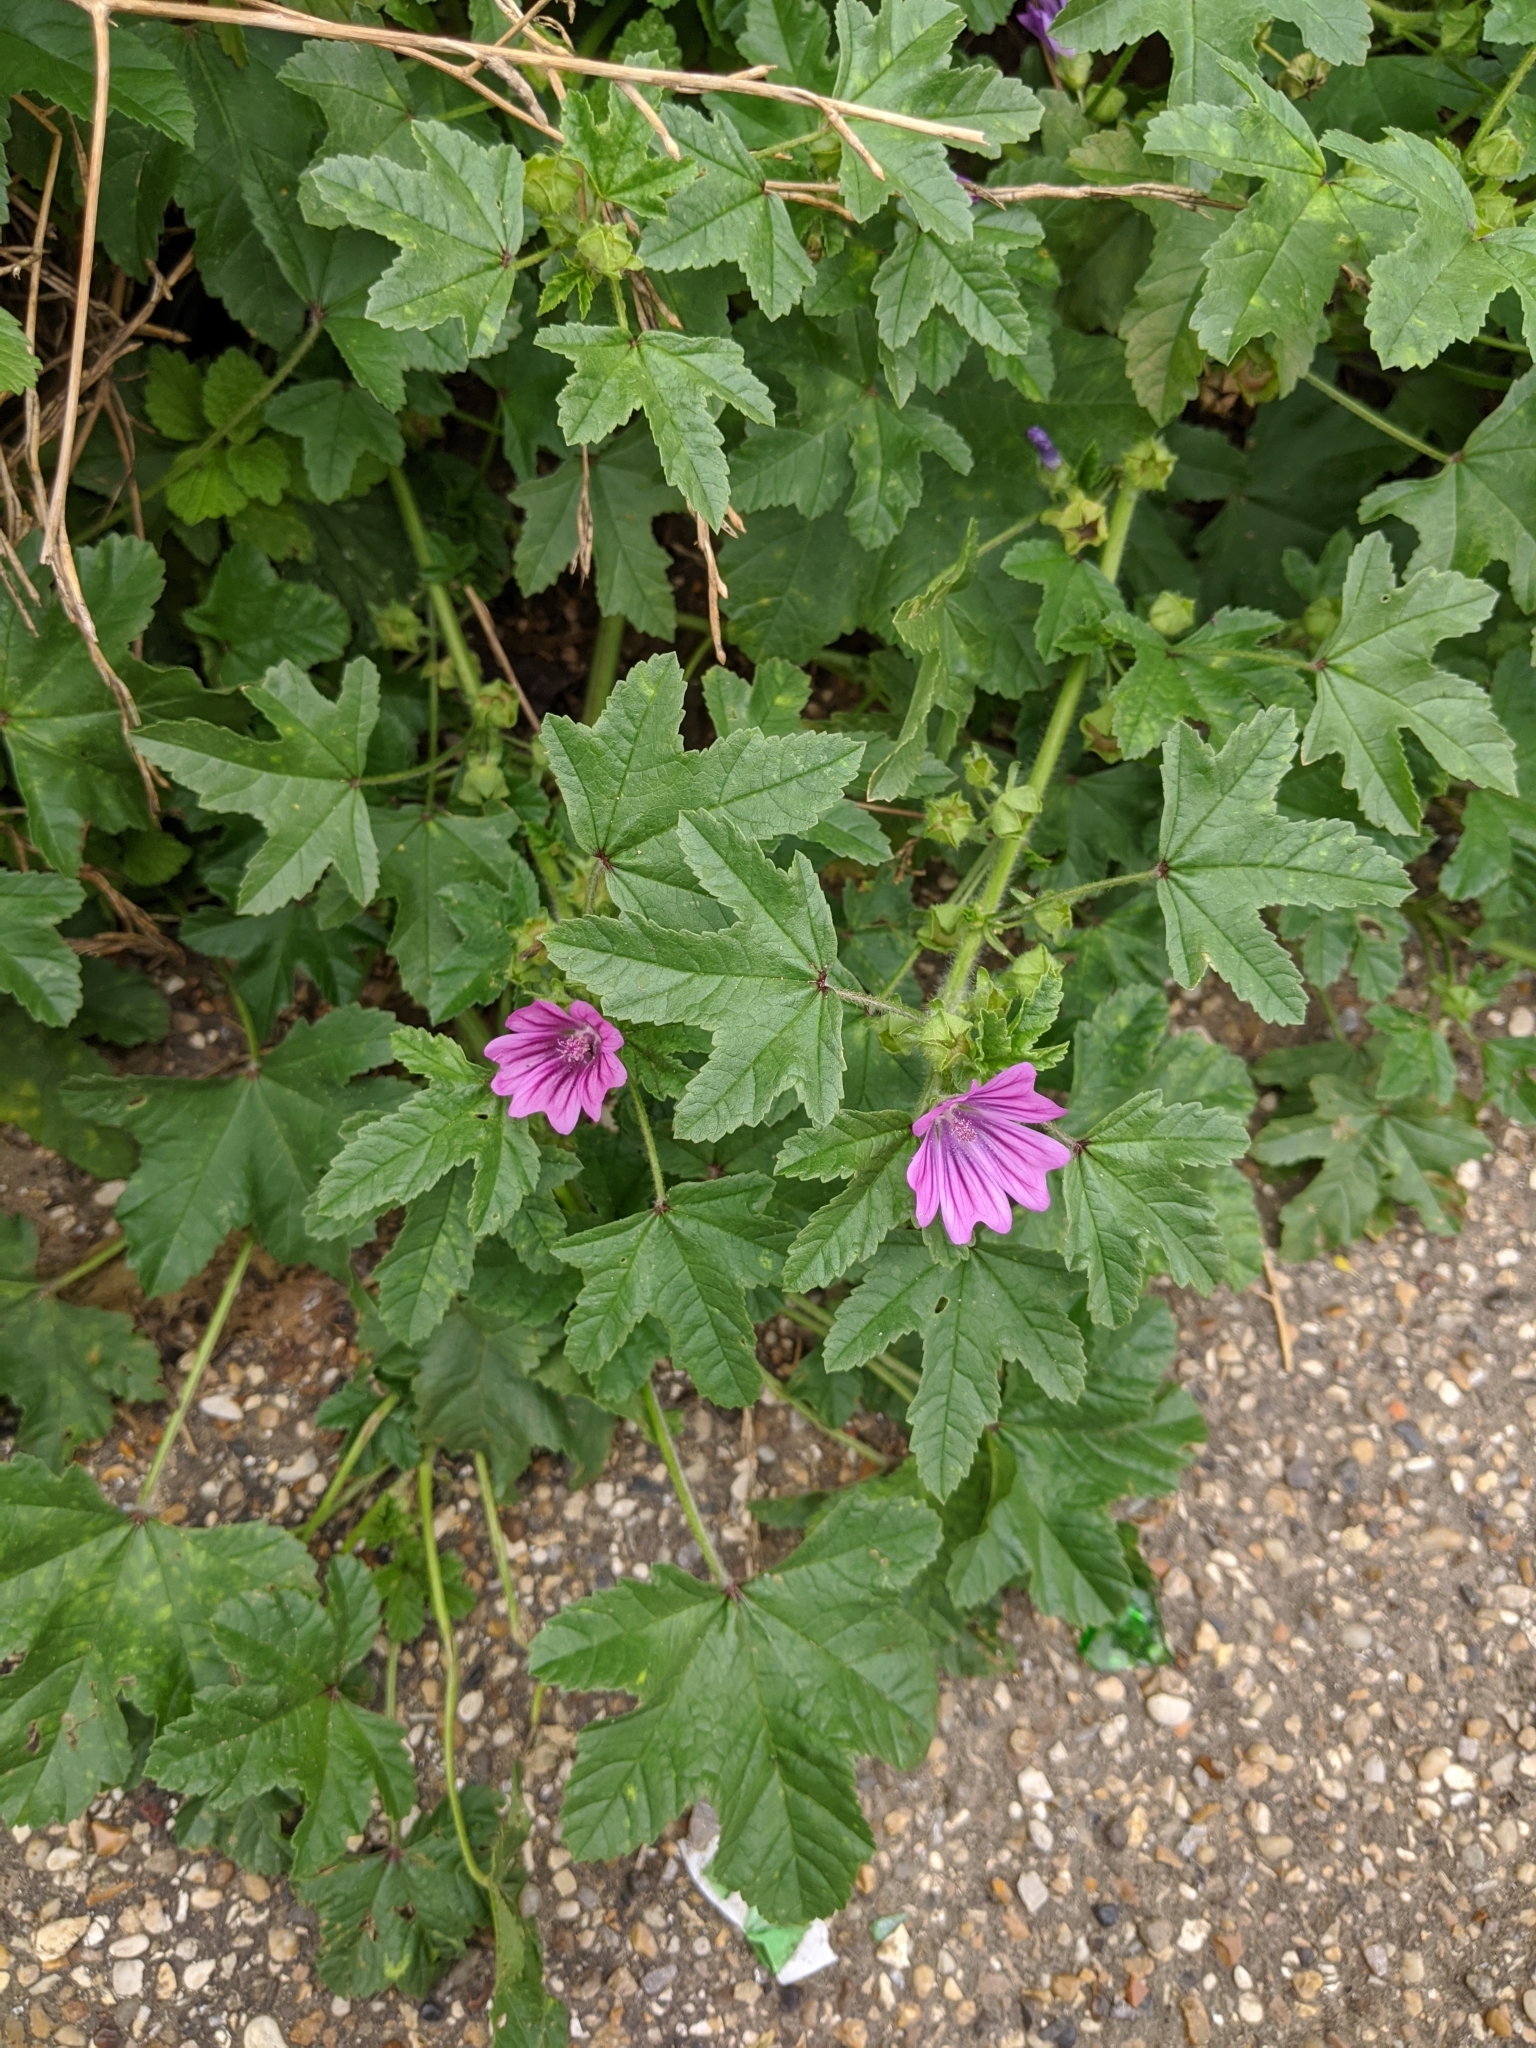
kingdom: Plantae
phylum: Tracheophyta
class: Magnoliopsida
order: Malvales
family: Malvaceae
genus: Malva
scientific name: Malva sylvestris
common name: Common mallow
